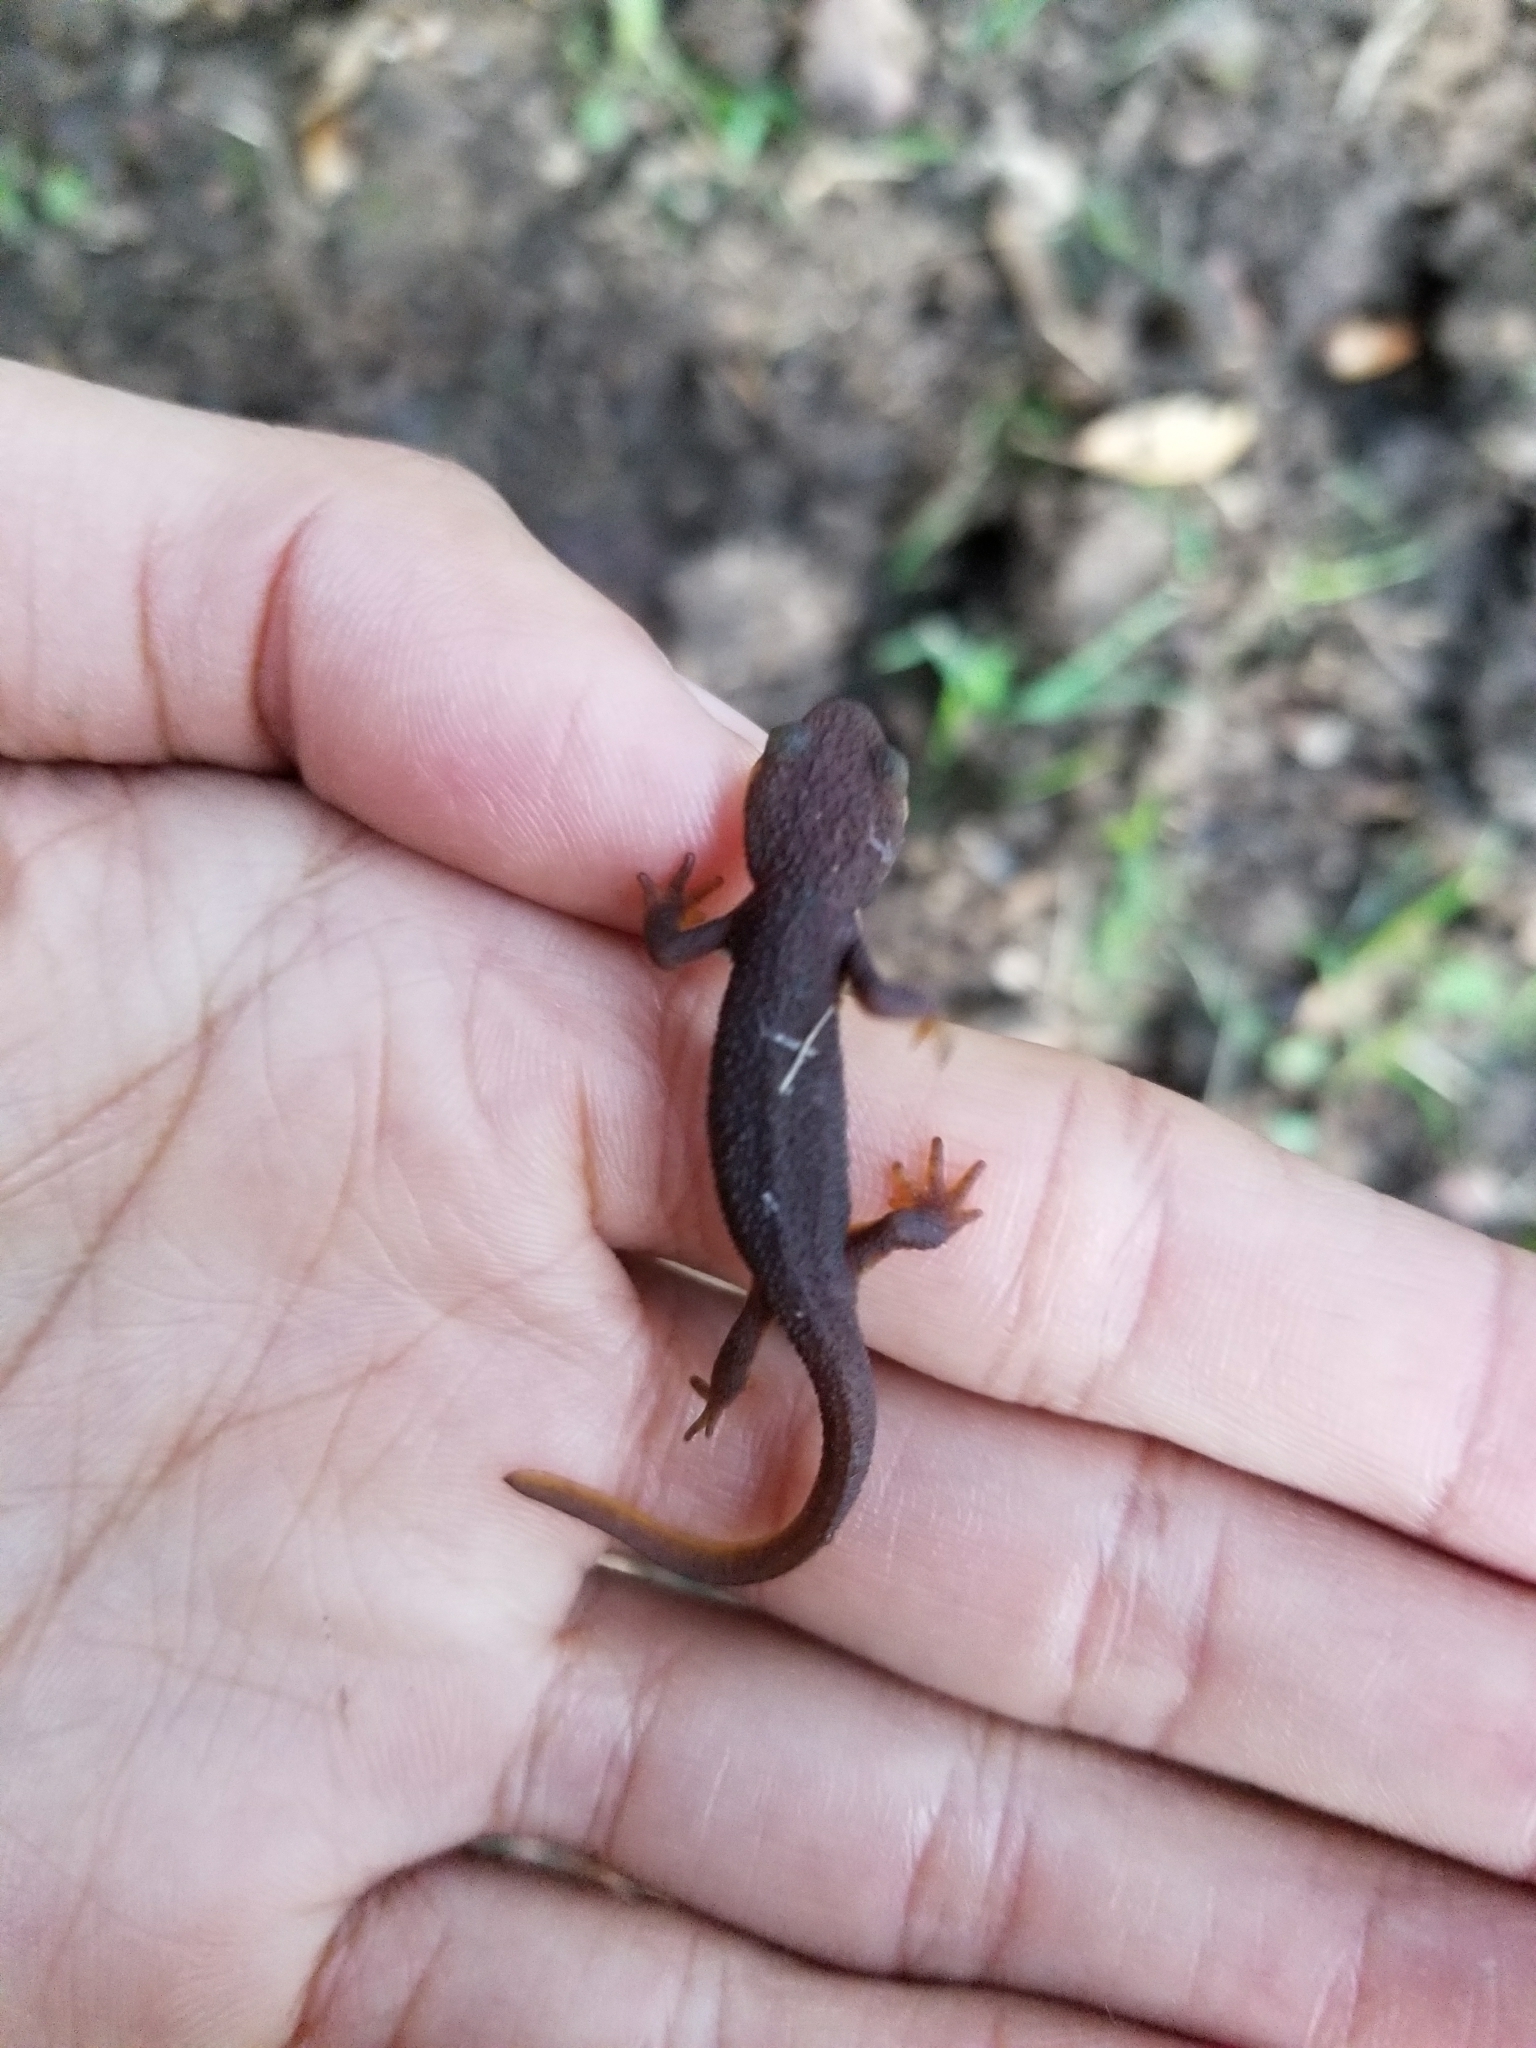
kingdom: Animalia
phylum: Chordata
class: Amphibia
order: Caudata
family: Salamandridae
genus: Taricha
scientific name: Taricha granulosa
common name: Roughskin newt
